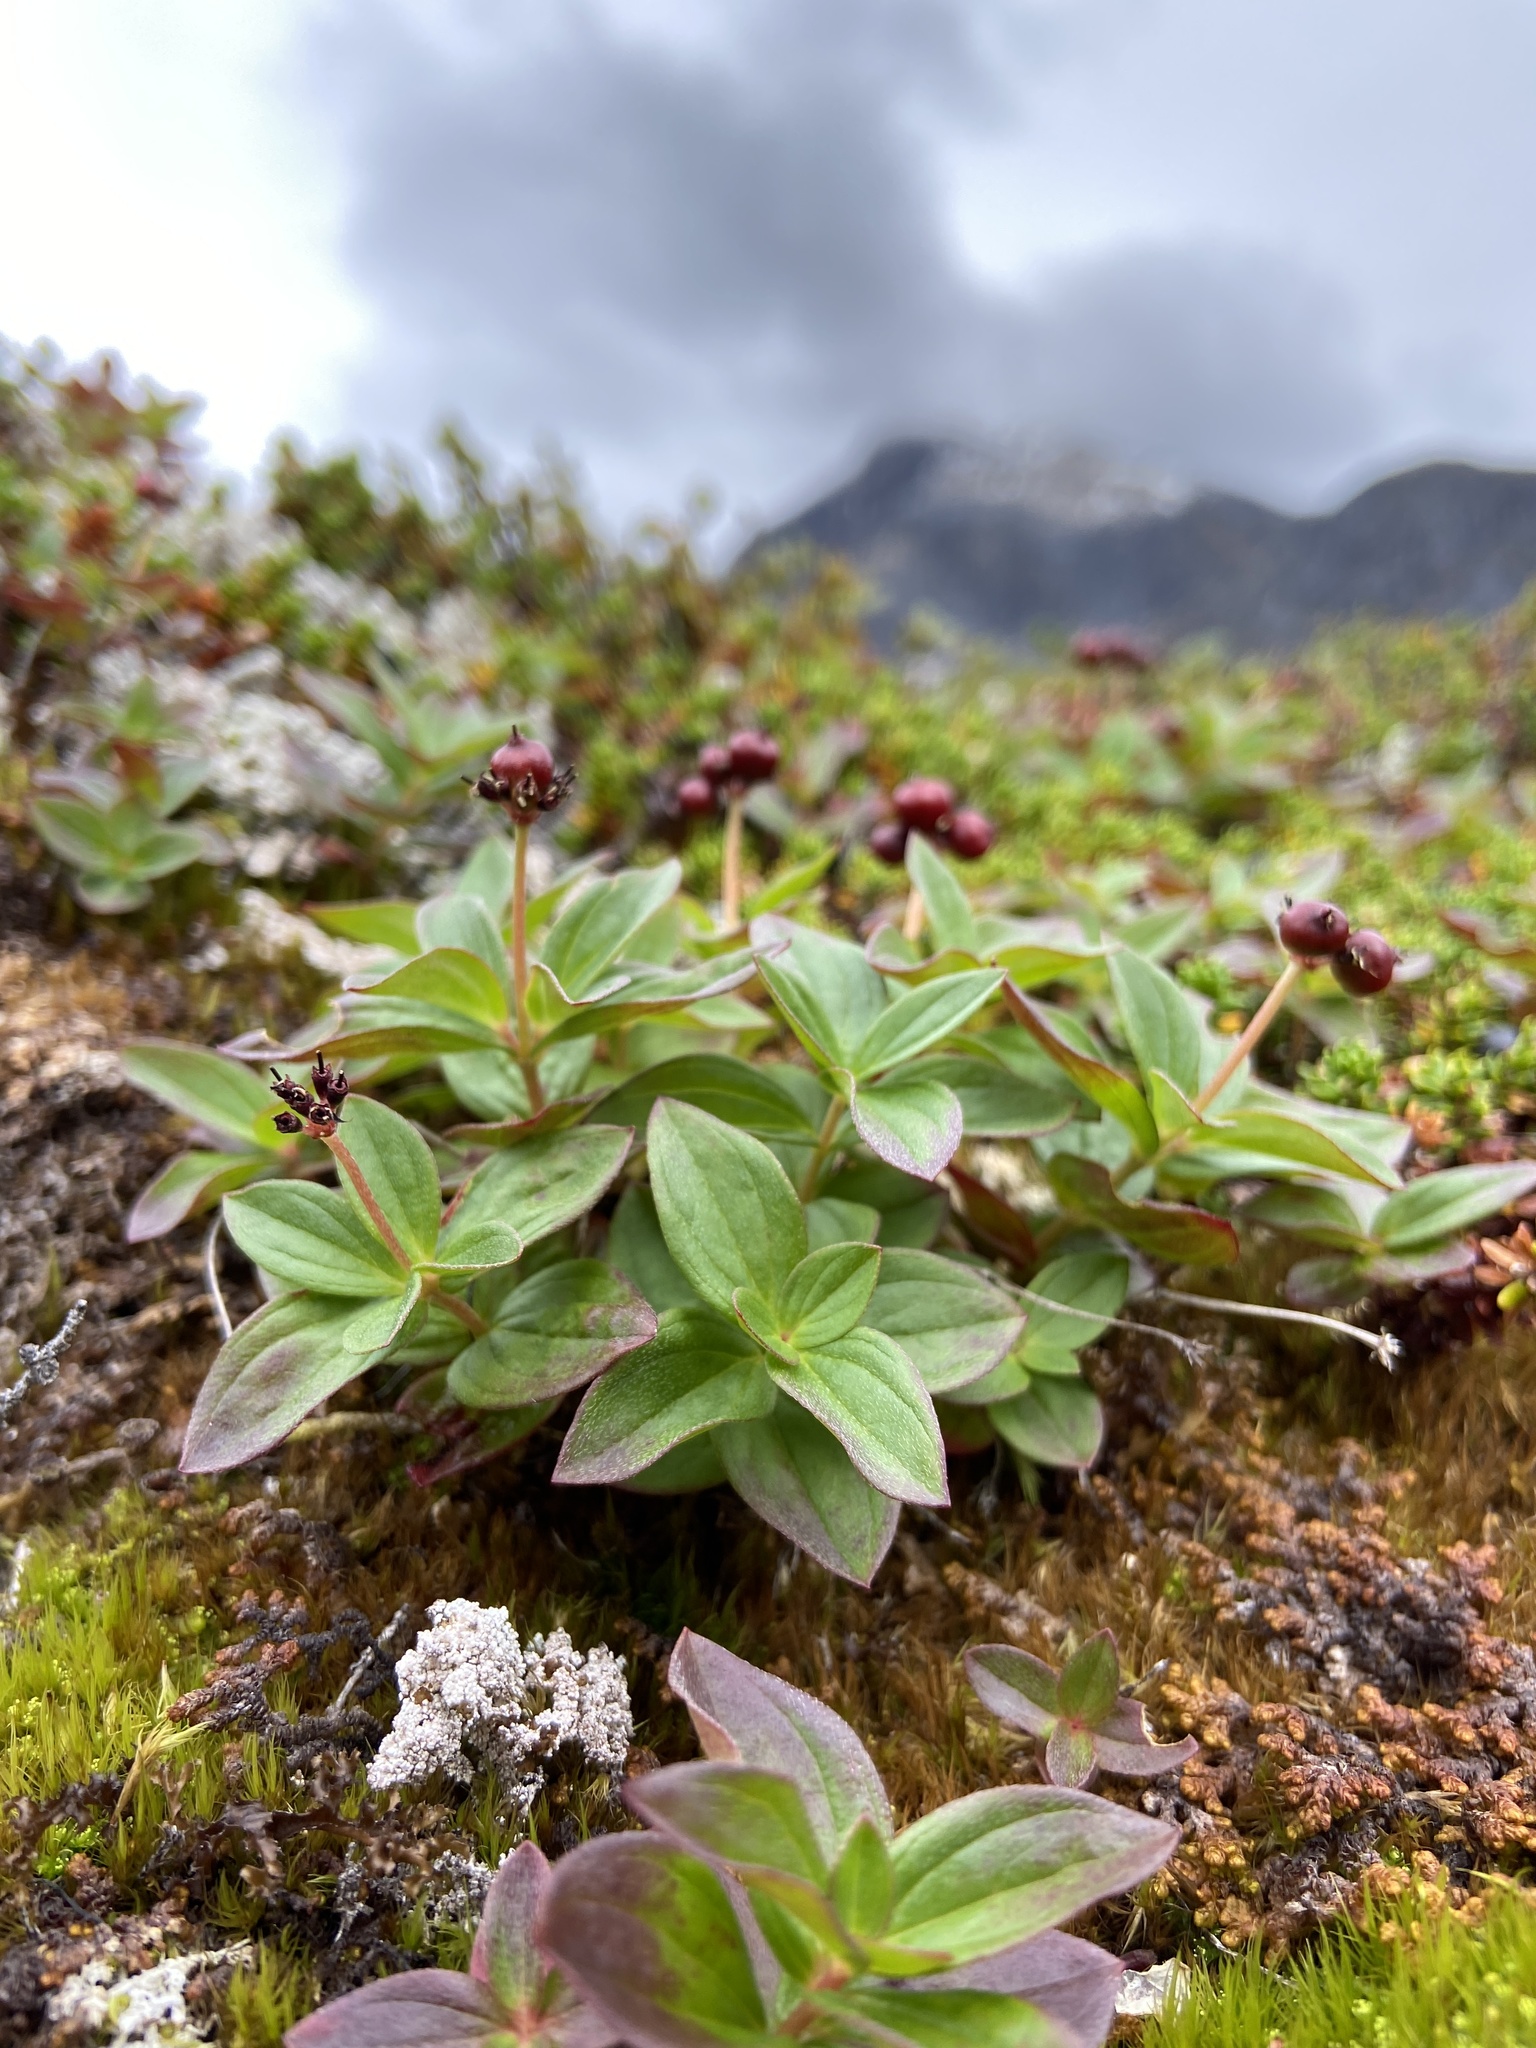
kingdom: Plantae
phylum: Tracheophyta
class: Magnoliopsida
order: Cornales
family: Cornaceae
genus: Cornus
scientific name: Cornus suecica
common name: Dwarf cornel
